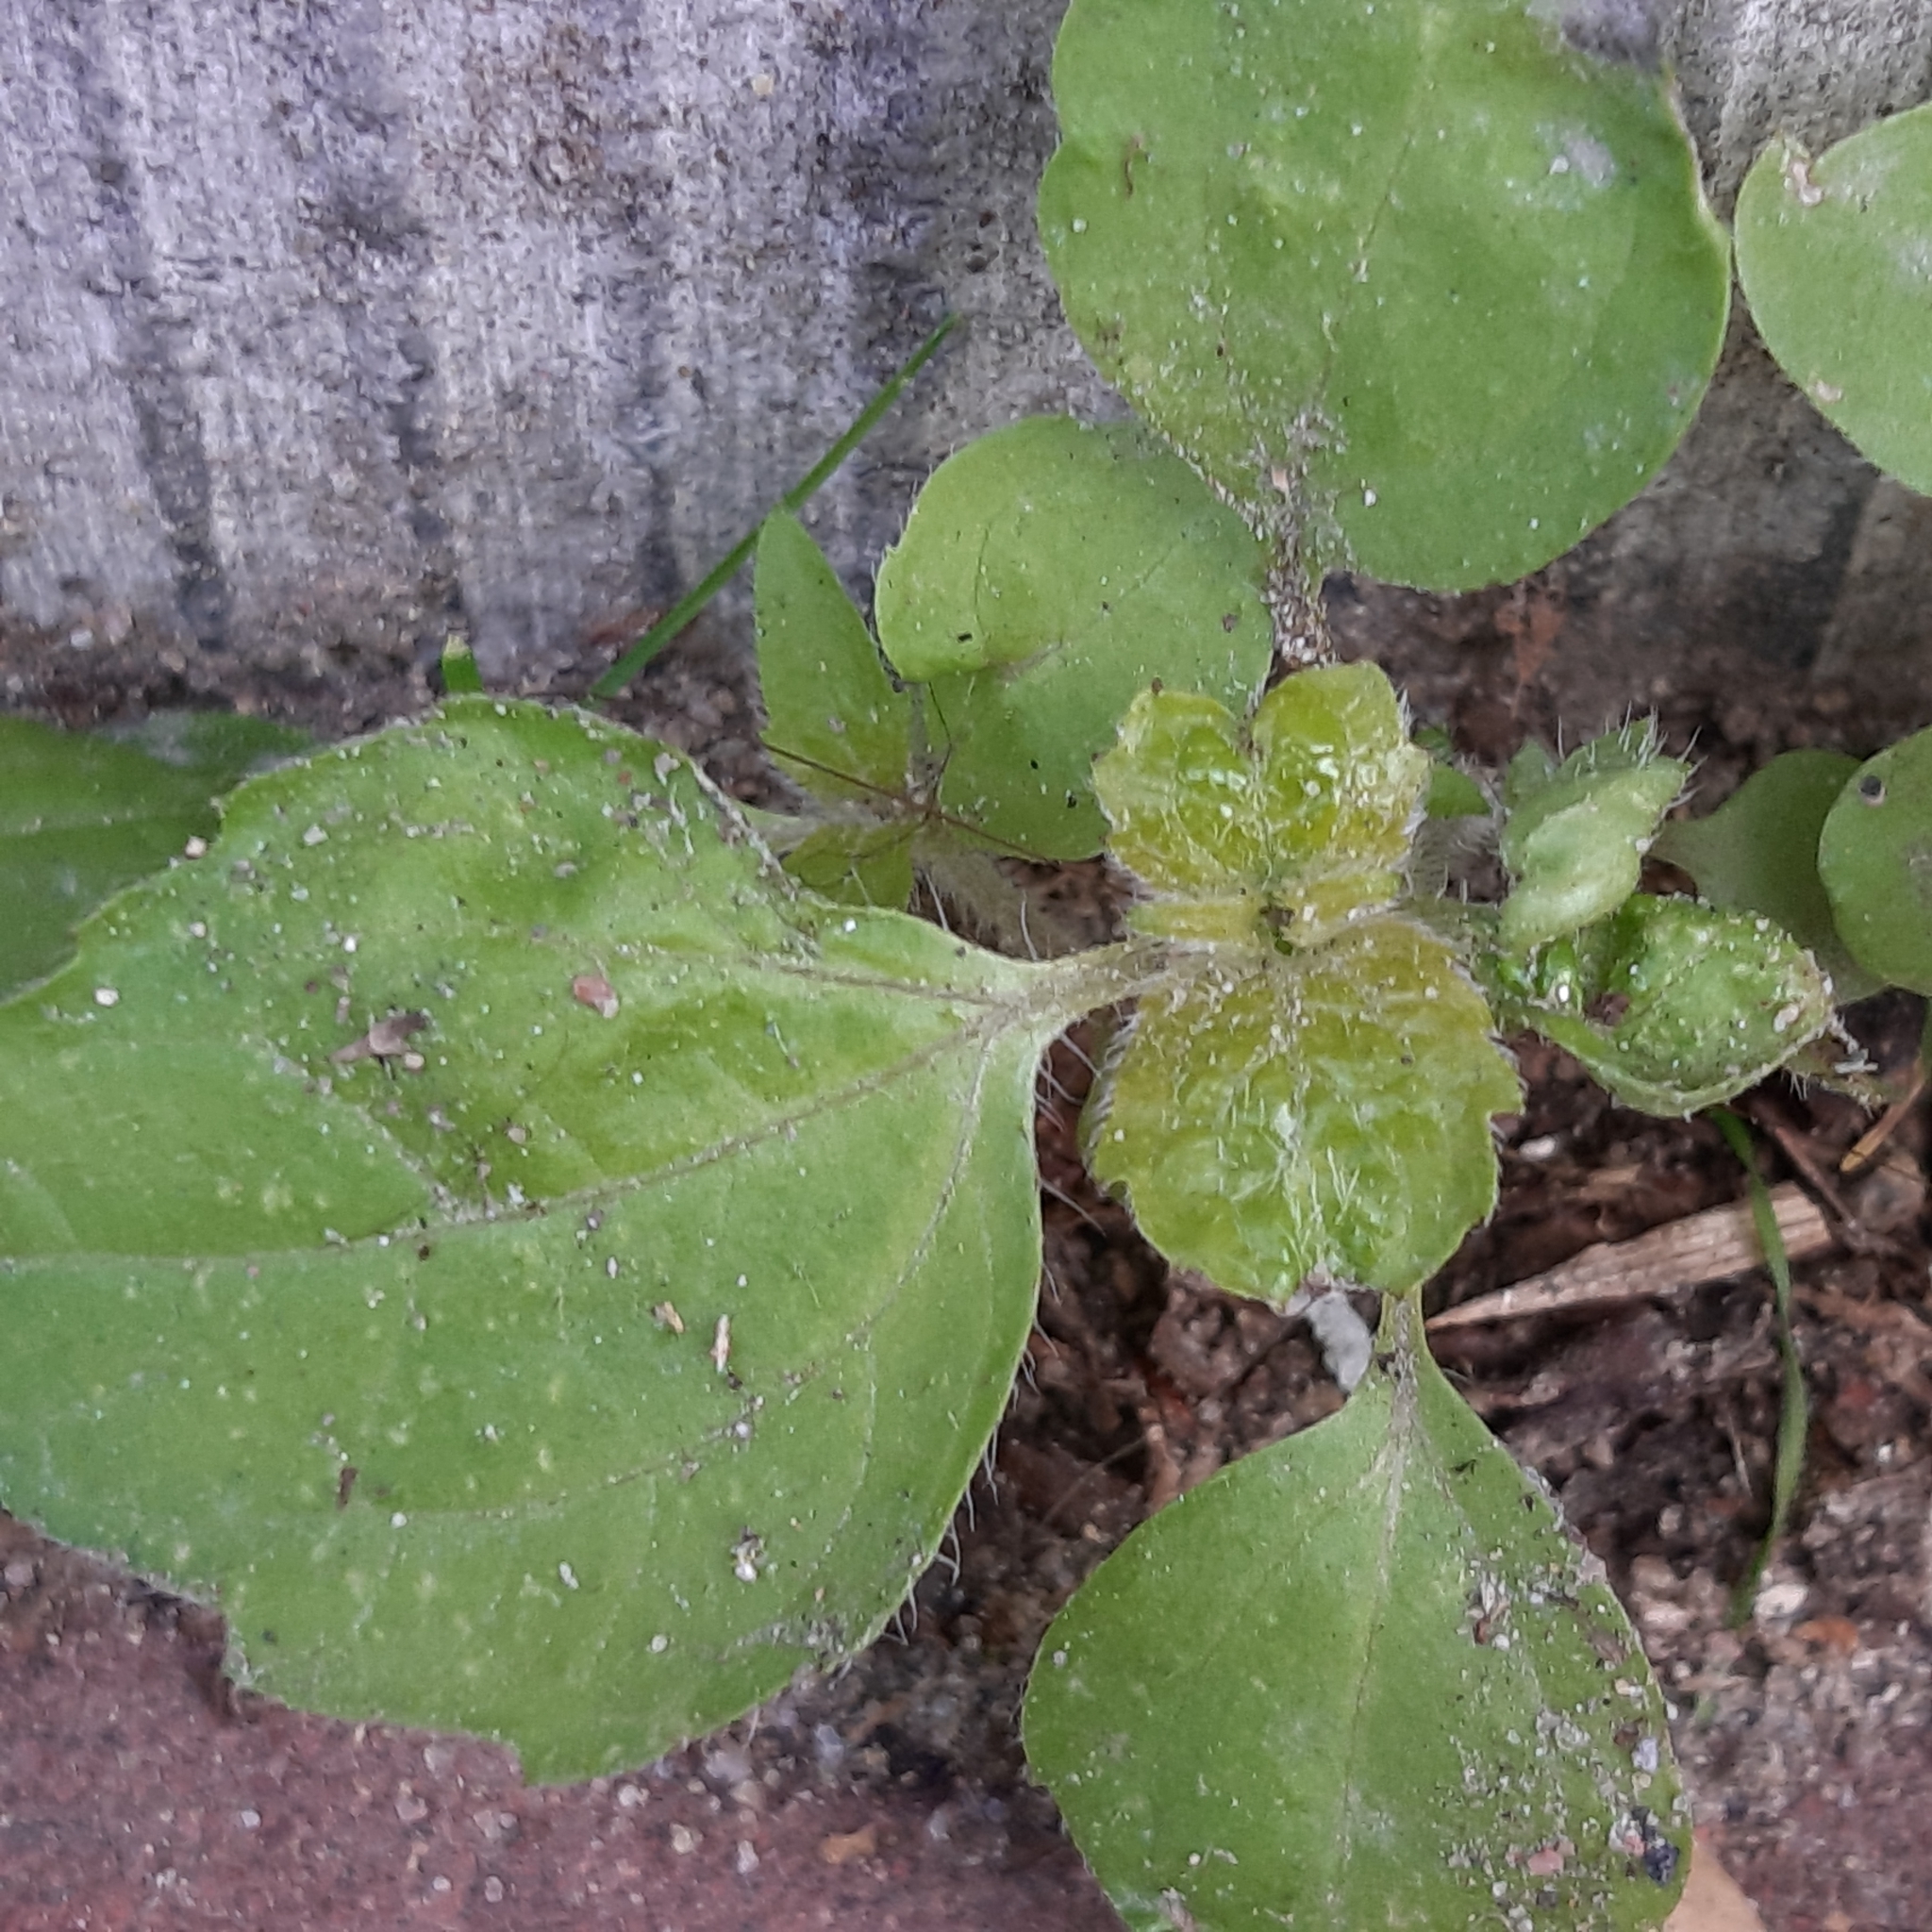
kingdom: Plantae
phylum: Tracheophyta
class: Magnoliopsida
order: Asterales
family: Asteraceae
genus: Galinsoga
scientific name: Galinsoga quadriradiata
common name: Shaggy soldier
